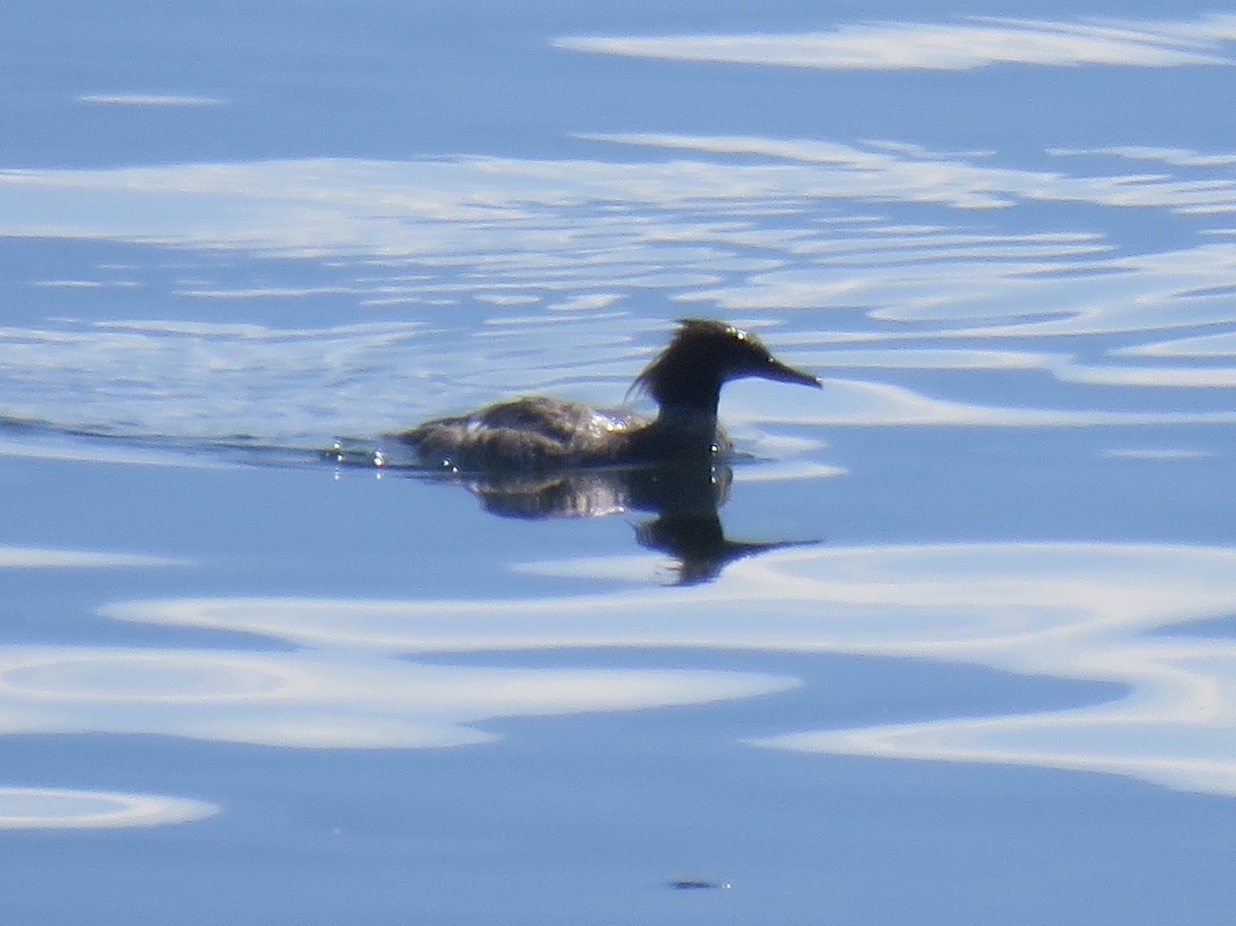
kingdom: Animalia
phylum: Chordata
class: Aves
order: Anseriformes
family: Anatidae
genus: Mergus
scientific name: Mergus merganser
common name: Common merganser
